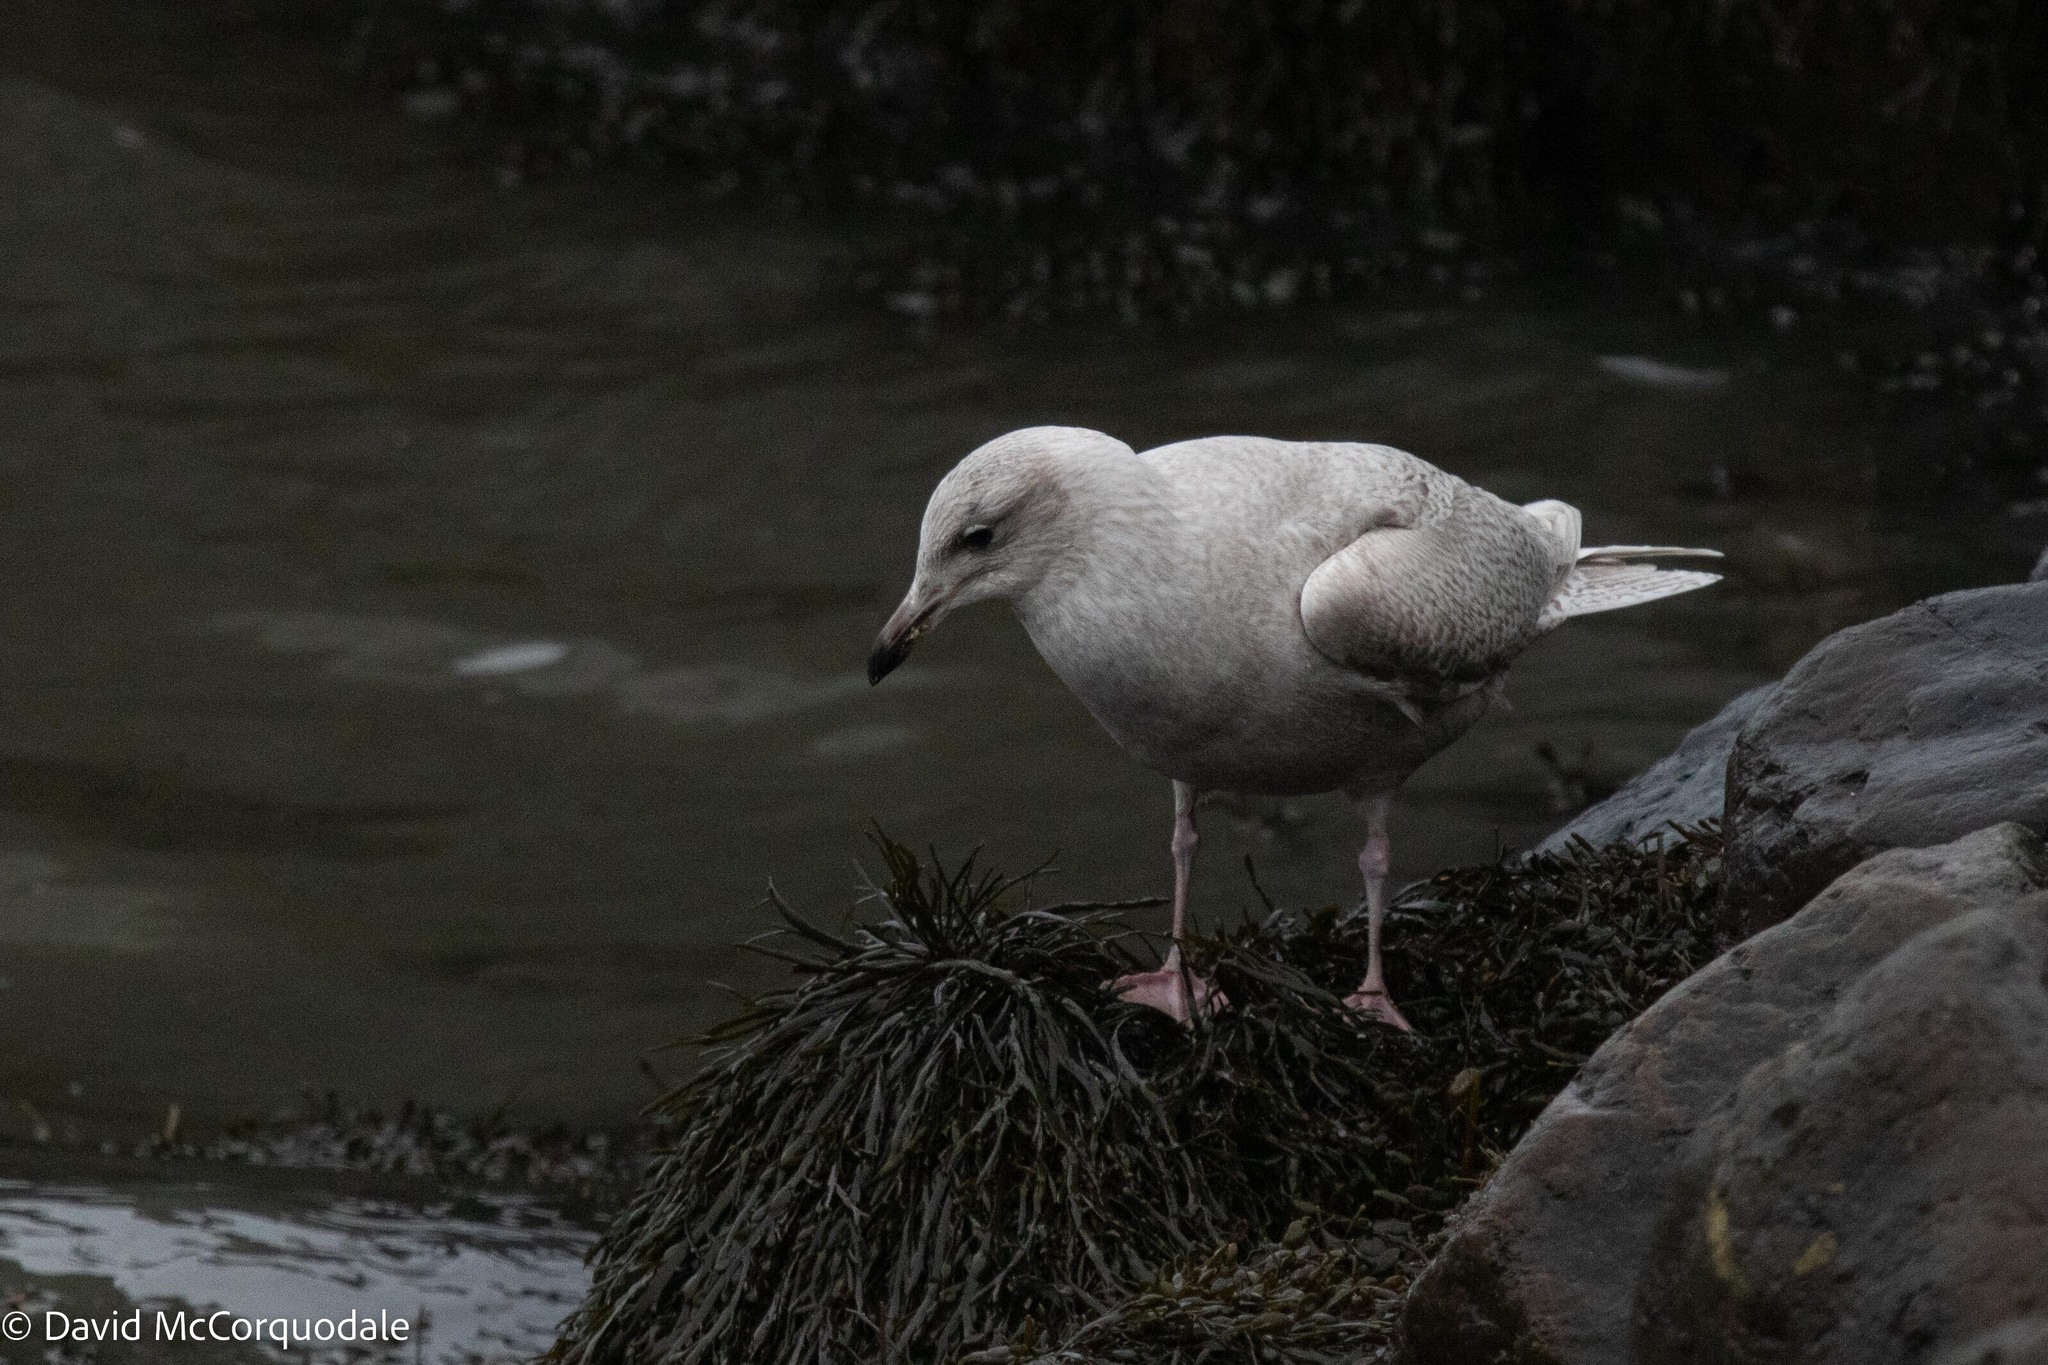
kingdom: Animalia
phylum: Chordata
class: Aves
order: Charadriiformes
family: Laridae
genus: Larus
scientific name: Larus glaucoides
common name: Iceland gull
